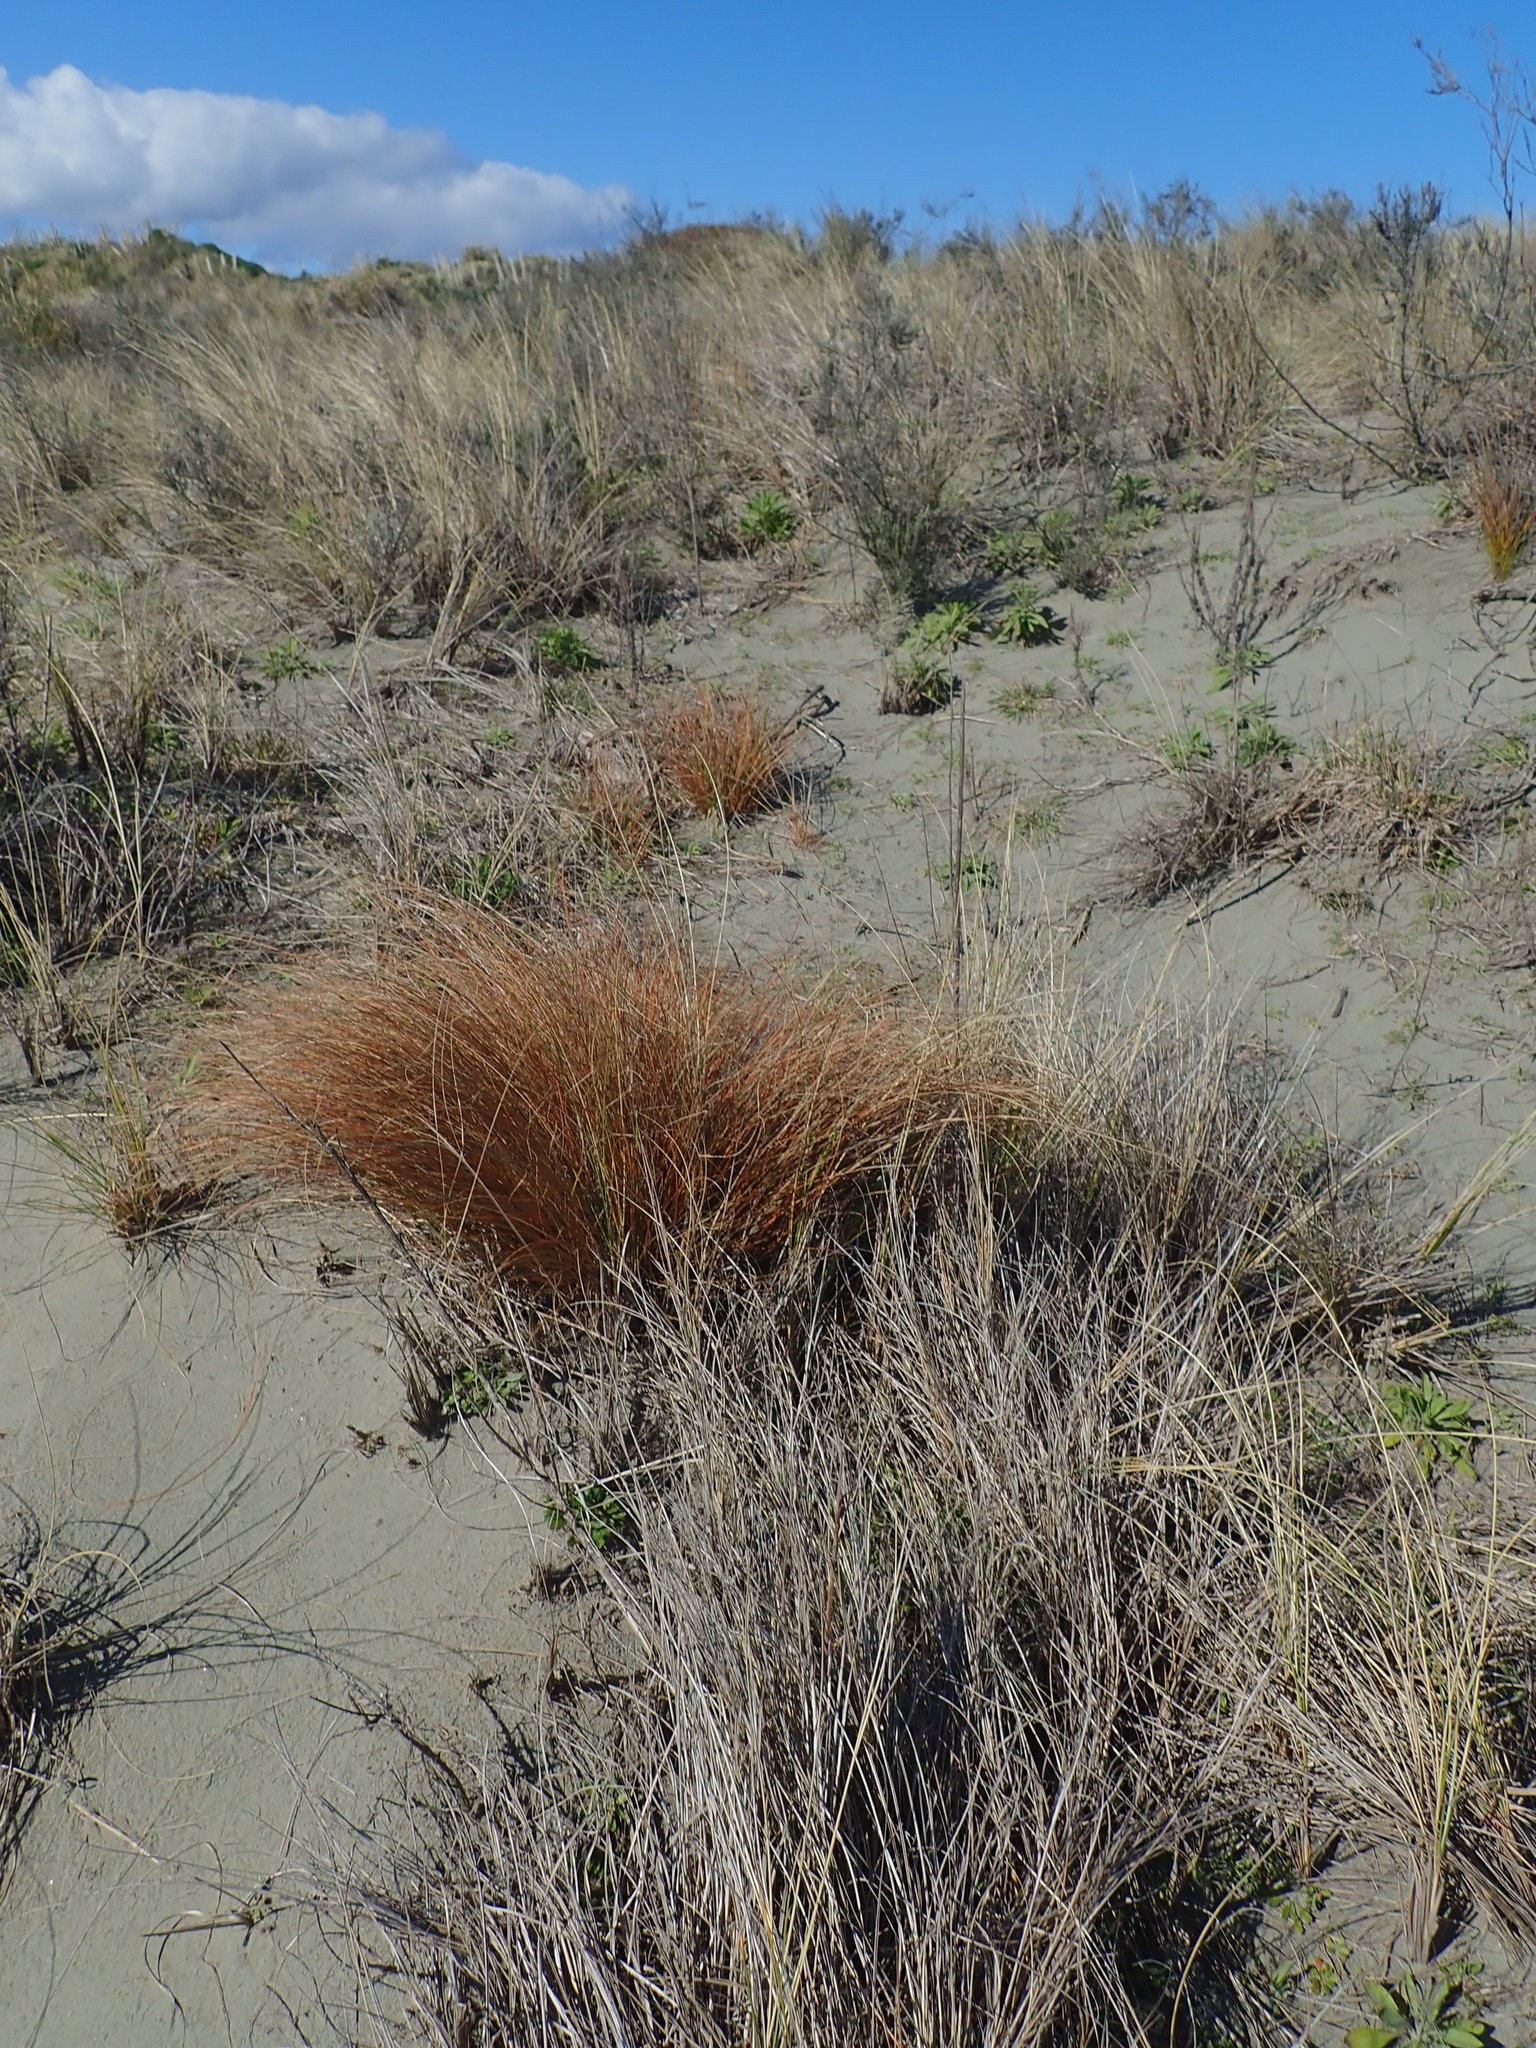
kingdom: Plantae
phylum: Tracheophyta
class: Liliopsida
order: Poales
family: Cyperaceae
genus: Carex
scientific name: Carex testacea
